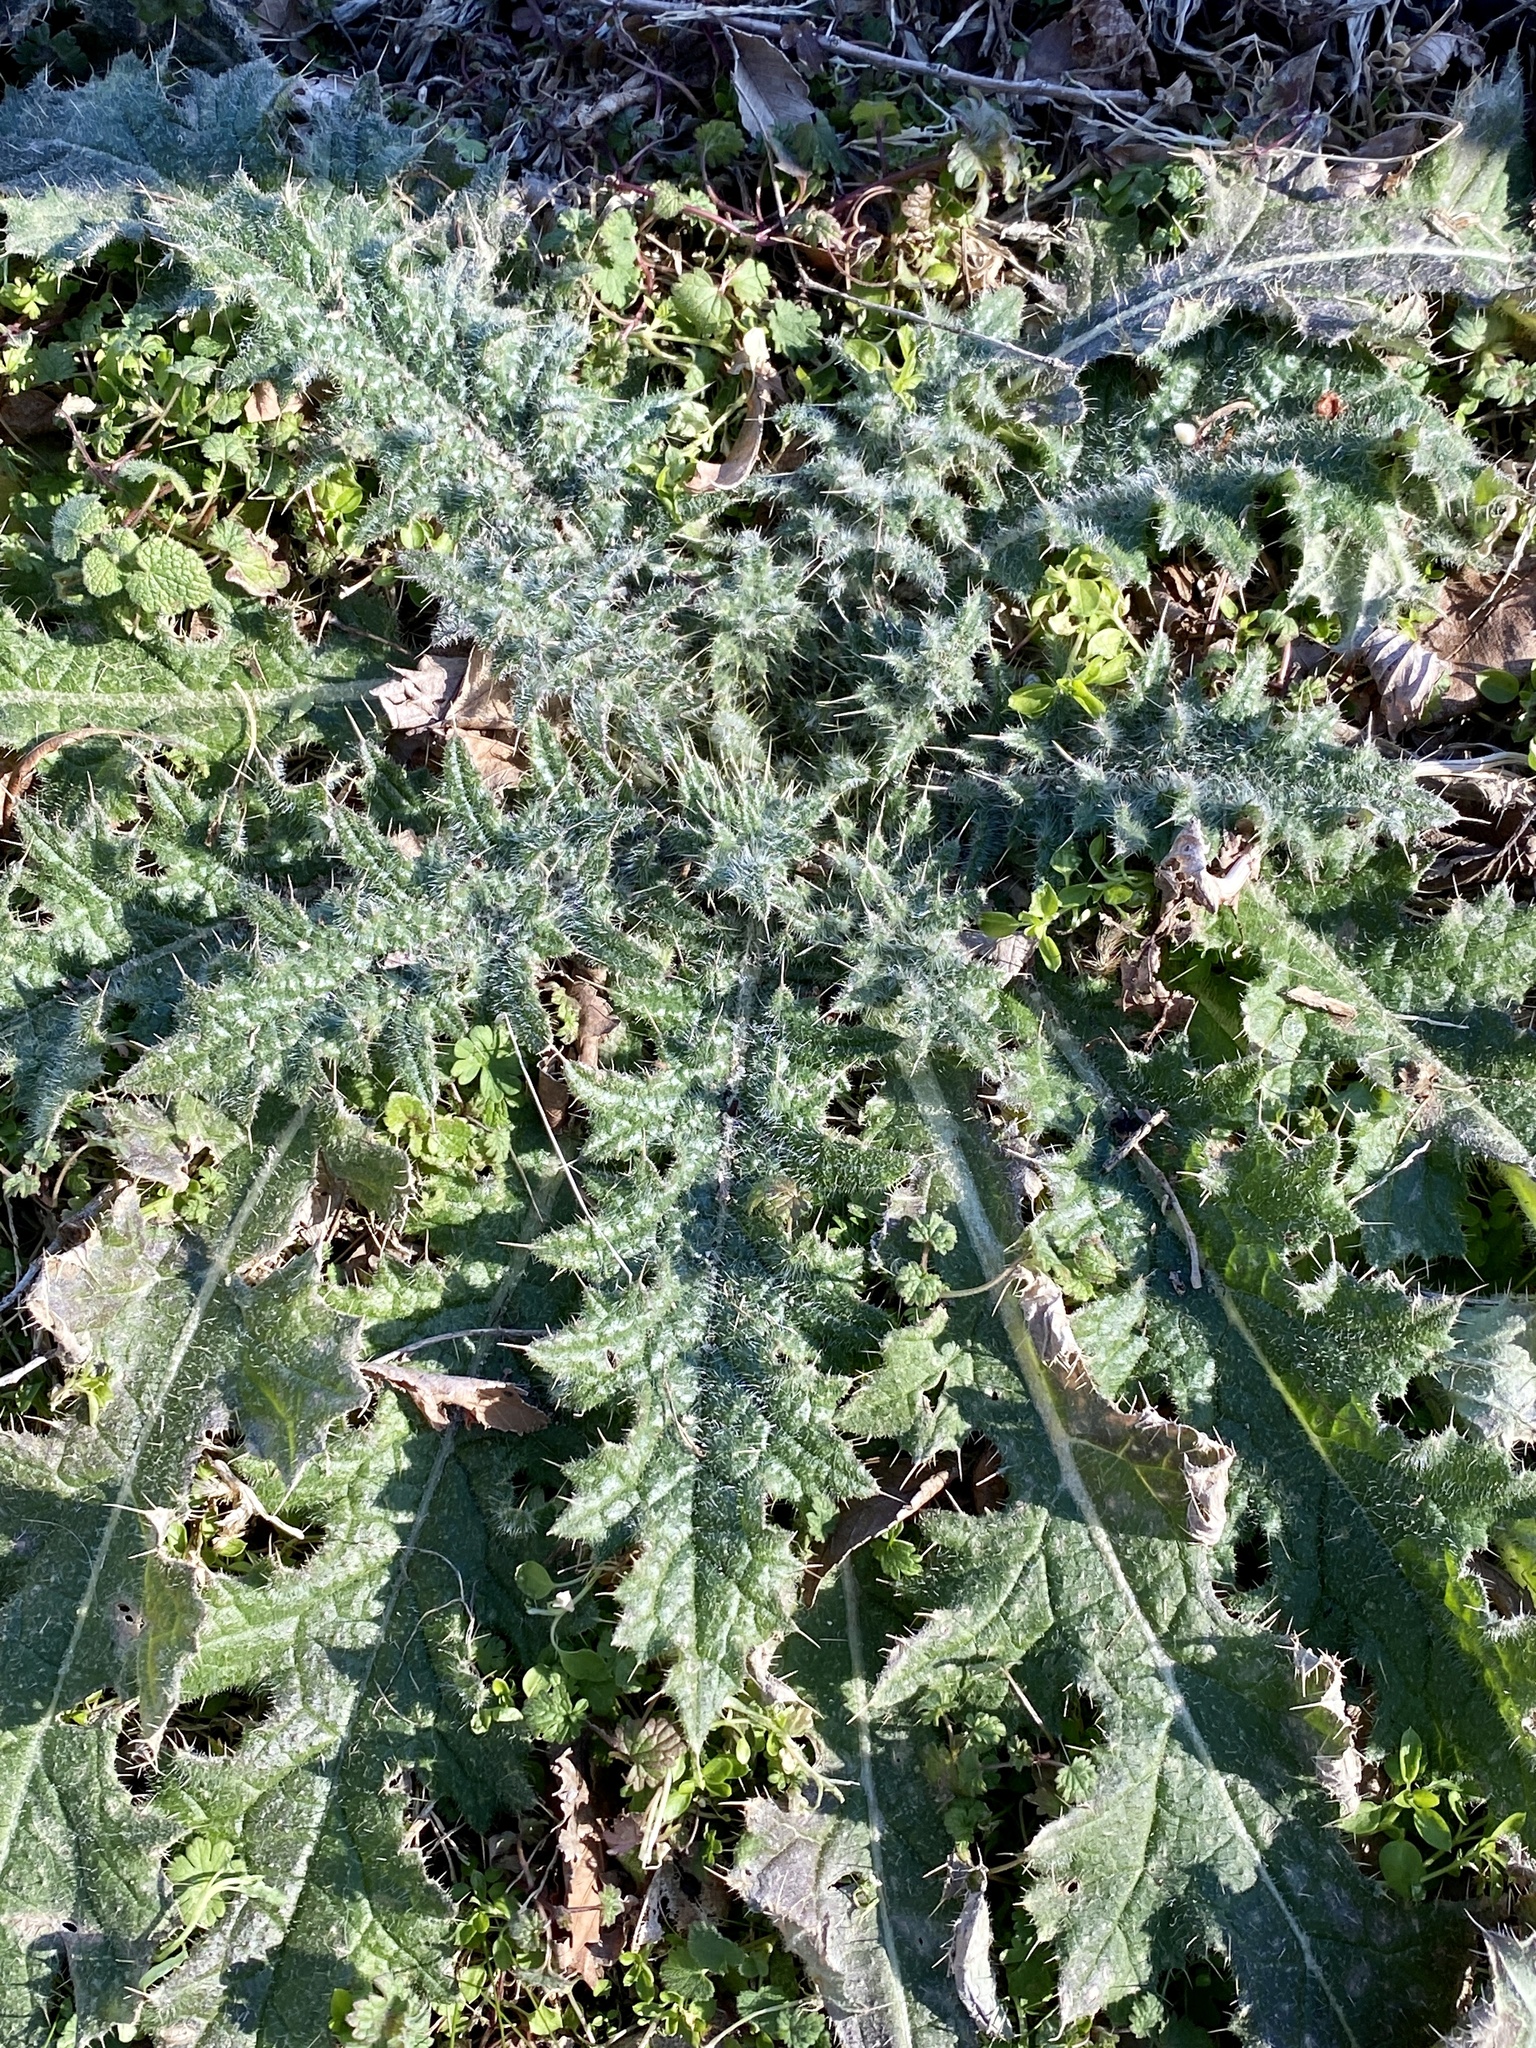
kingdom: Plantae
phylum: Tracheophyta
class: Magnoliopsida
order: Asterales
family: Asteraceae
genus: Cirsium
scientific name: Cirsium vulgare
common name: Bull thistle
